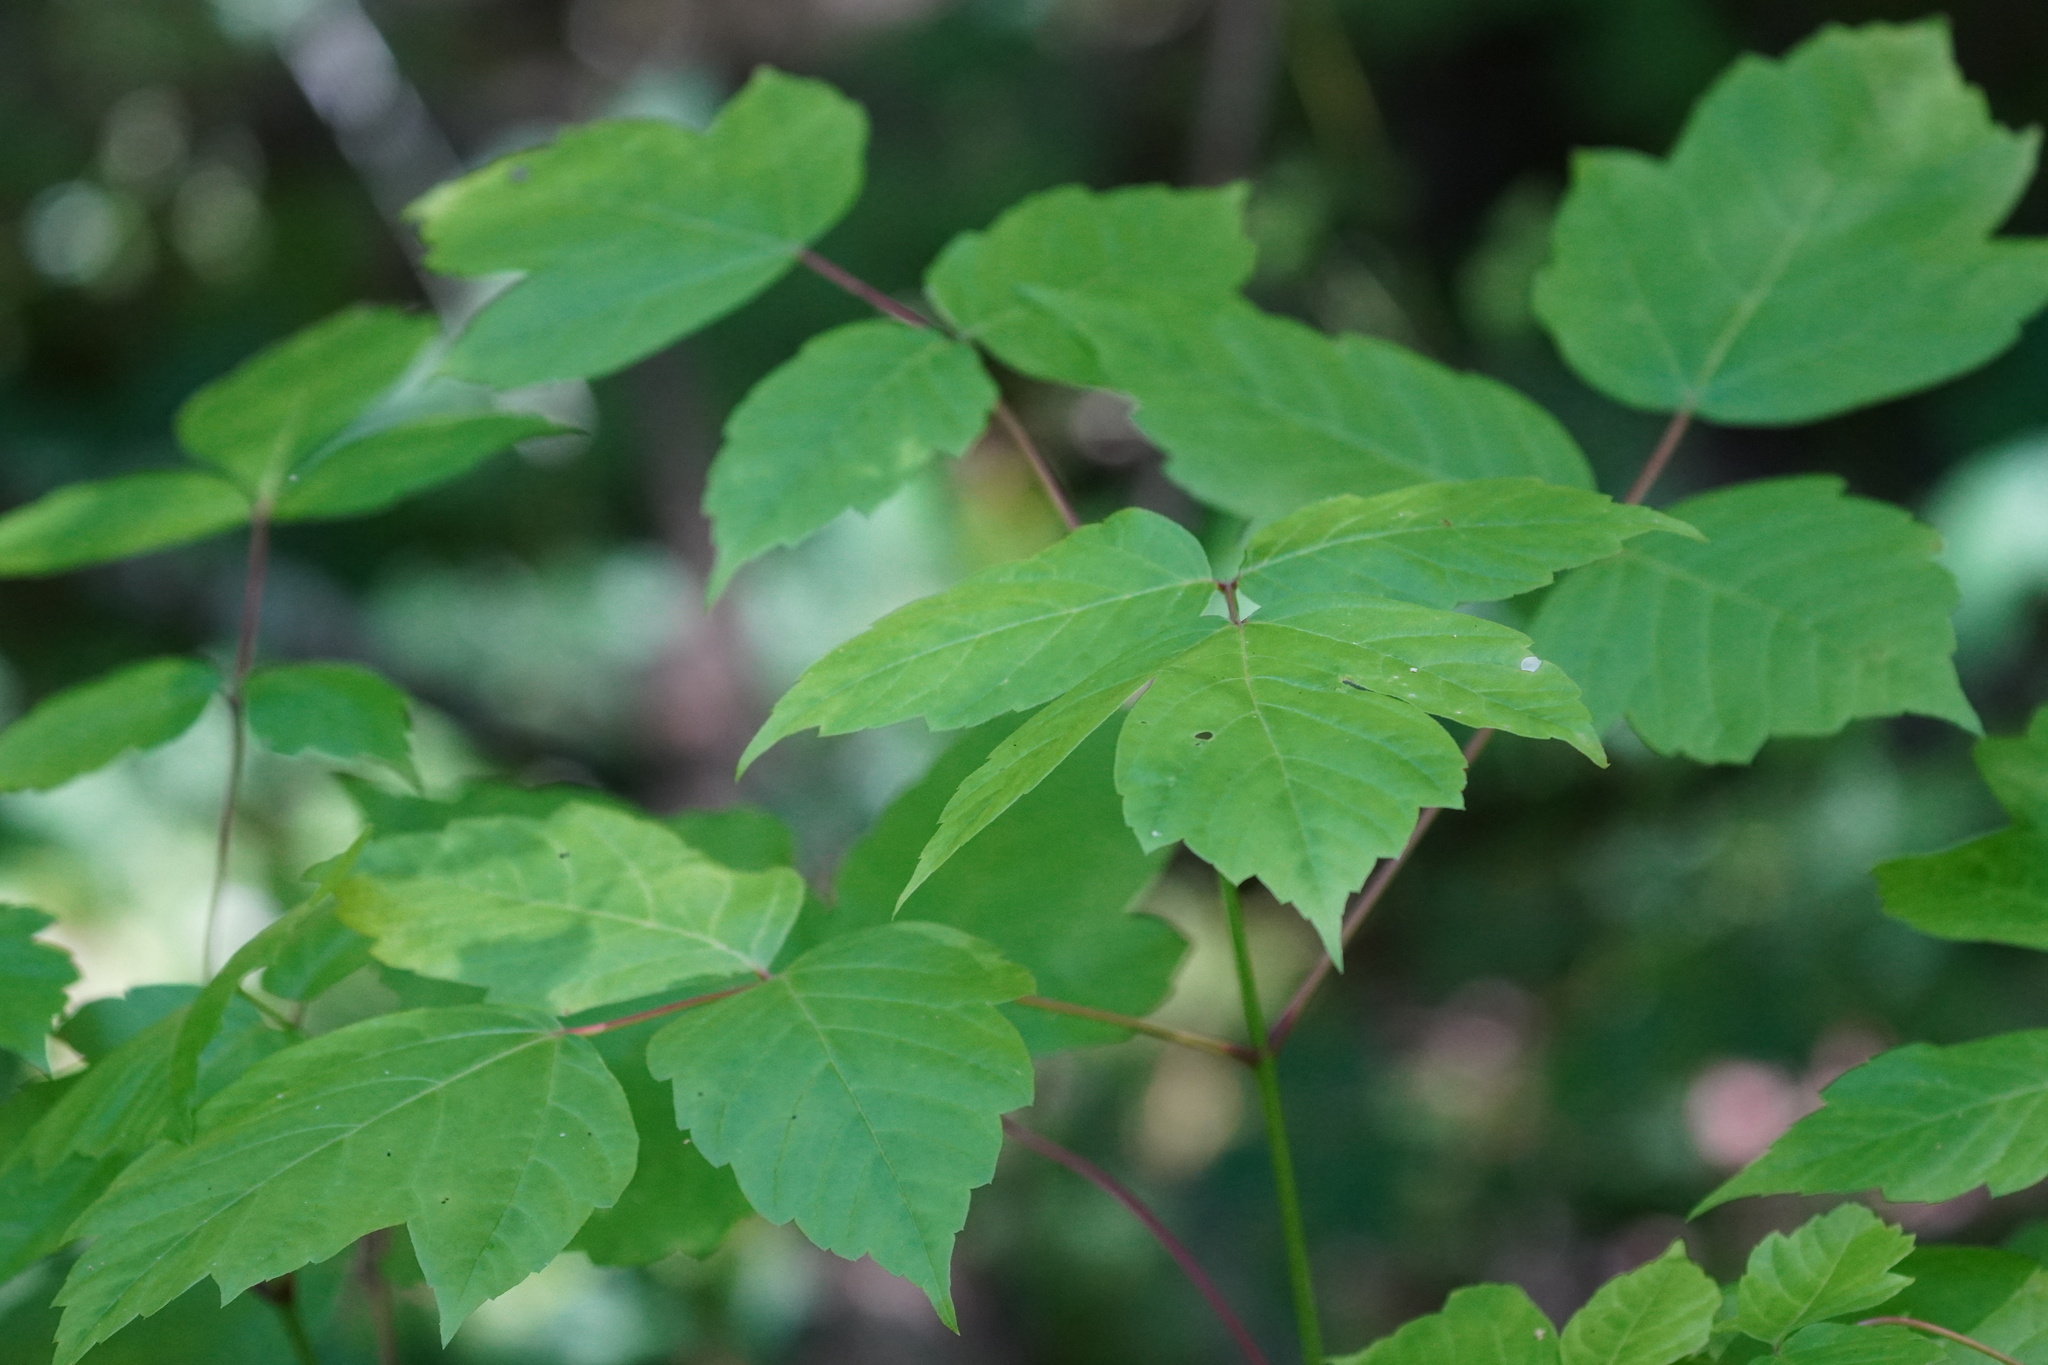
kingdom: Plantae
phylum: Tracheophyta
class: Magnoliopsida
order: Sapindales
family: Sapindaceae
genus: Acer
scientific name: Acer negundo
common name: Ashleaf maple
